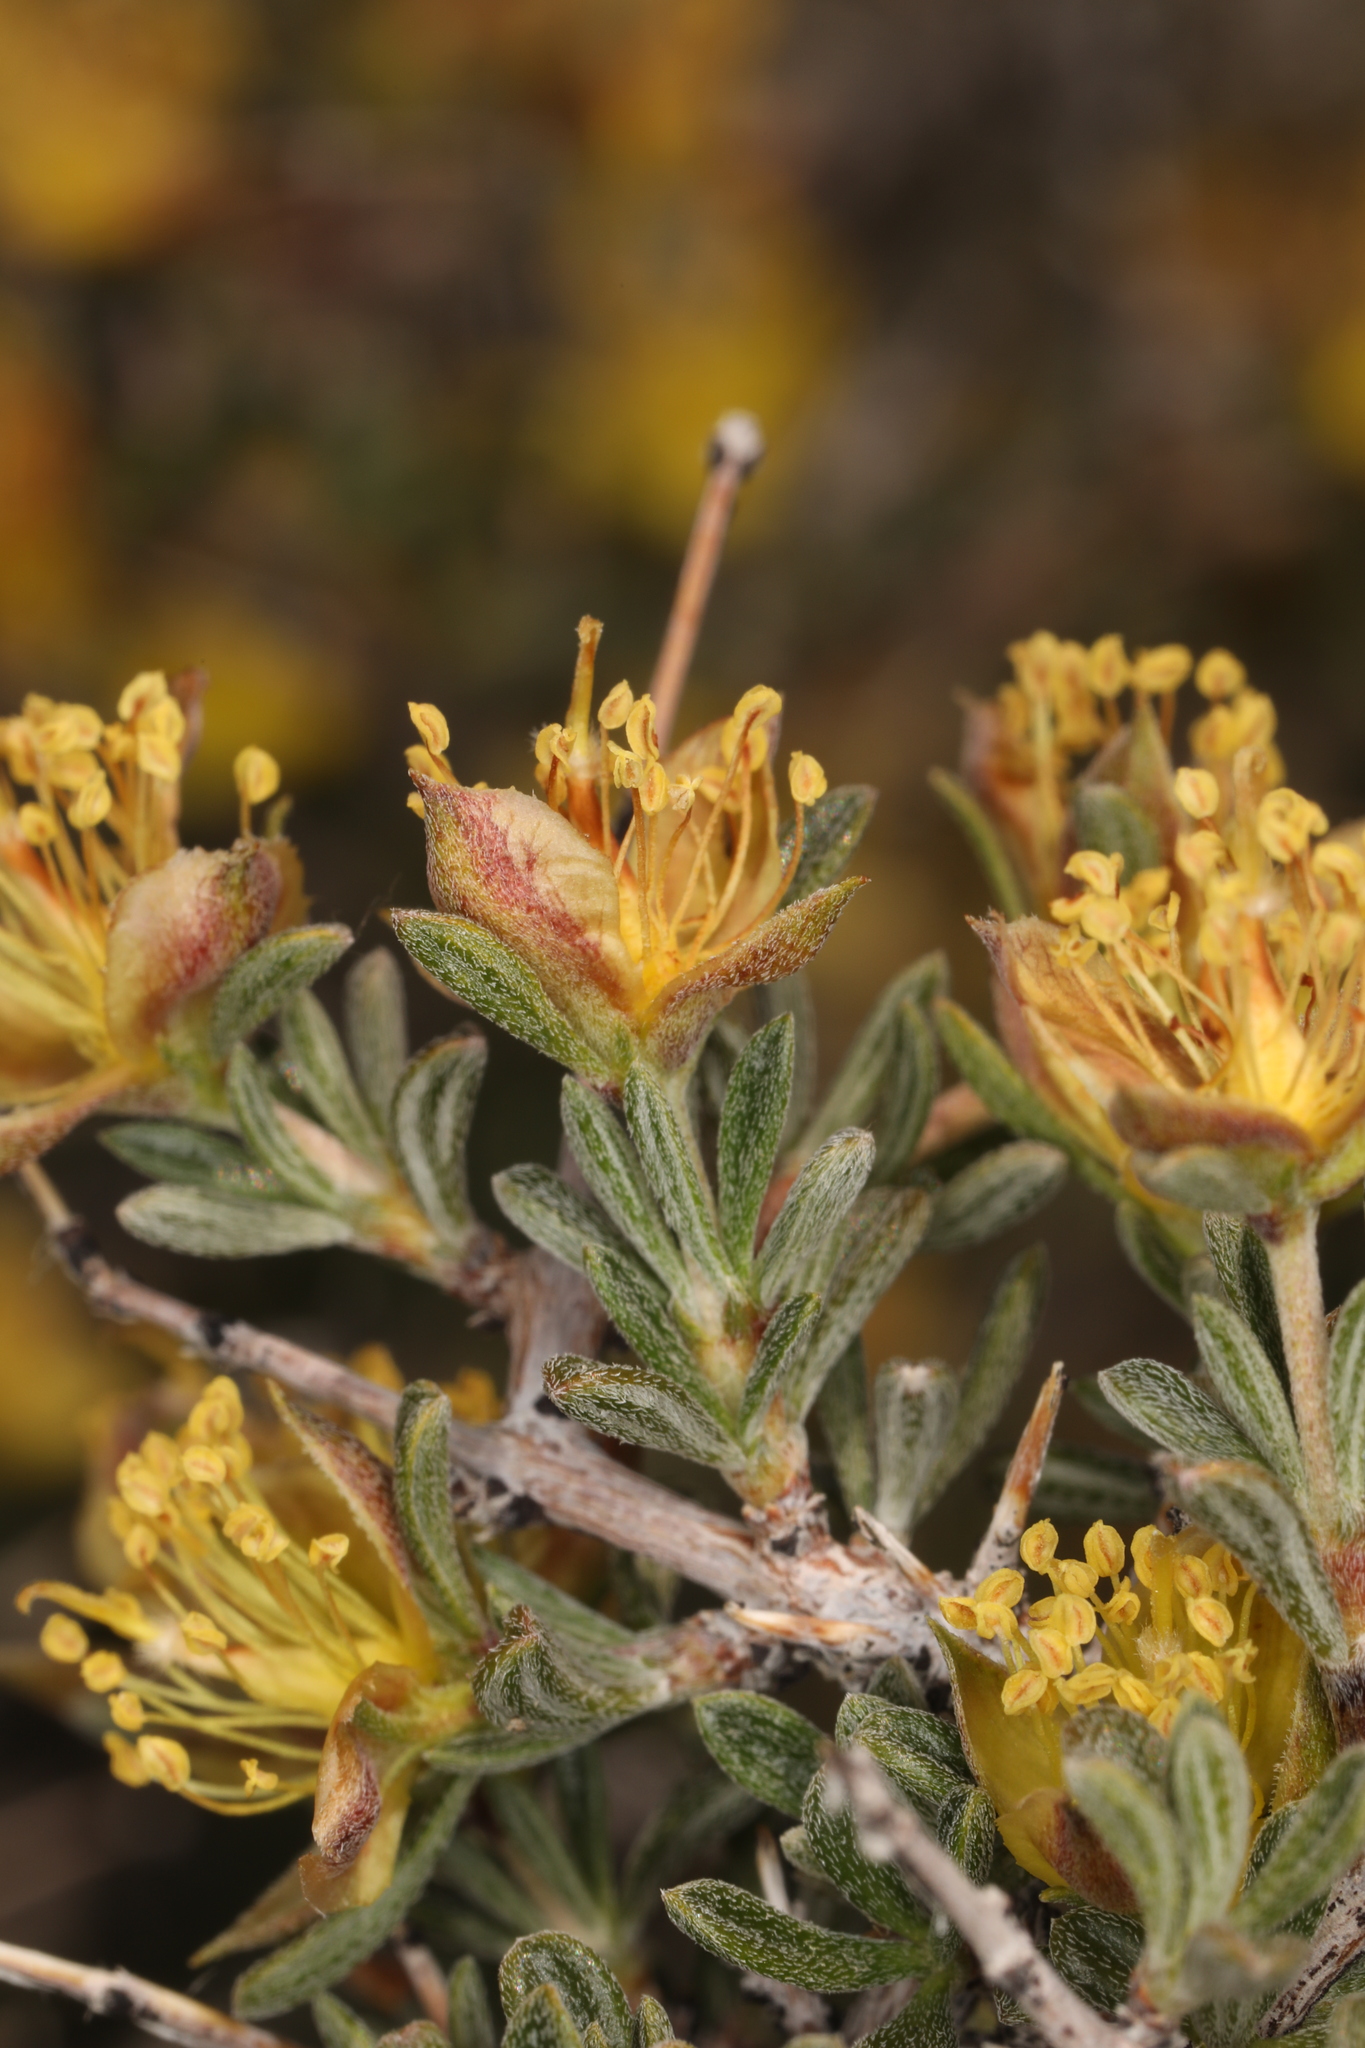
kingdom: Plantae
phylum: Tracheophyta
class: Magnoliopsida
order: Rosales
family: Rosaceae
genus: Coleogyne
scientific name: Coleogyne ramosissima
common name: Blackbrush
